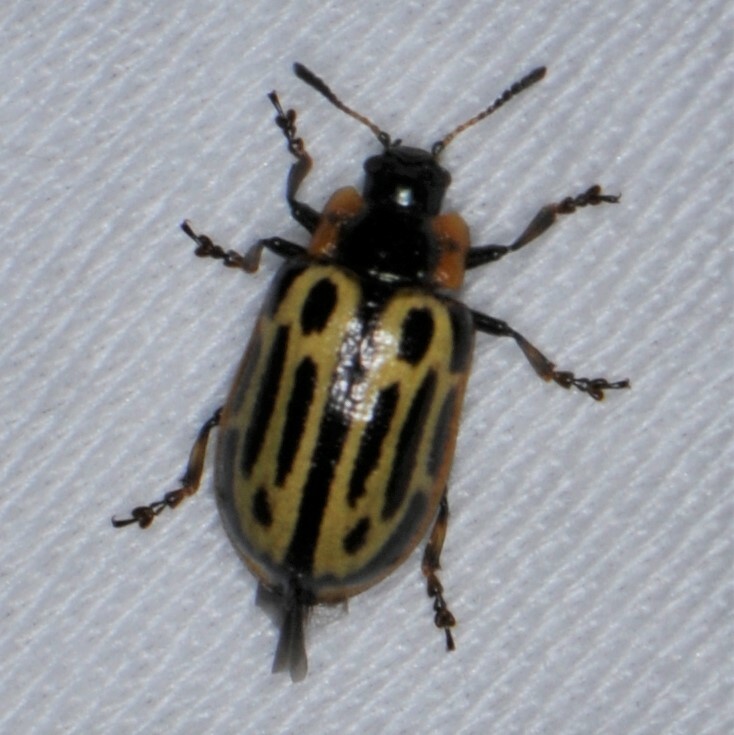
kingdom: Animalia
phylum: Arthropoda
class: Insecta
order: Coleoptera
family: Chrysomelidae
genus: Aethiopocassis
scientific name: Aethiopocassis scripta
